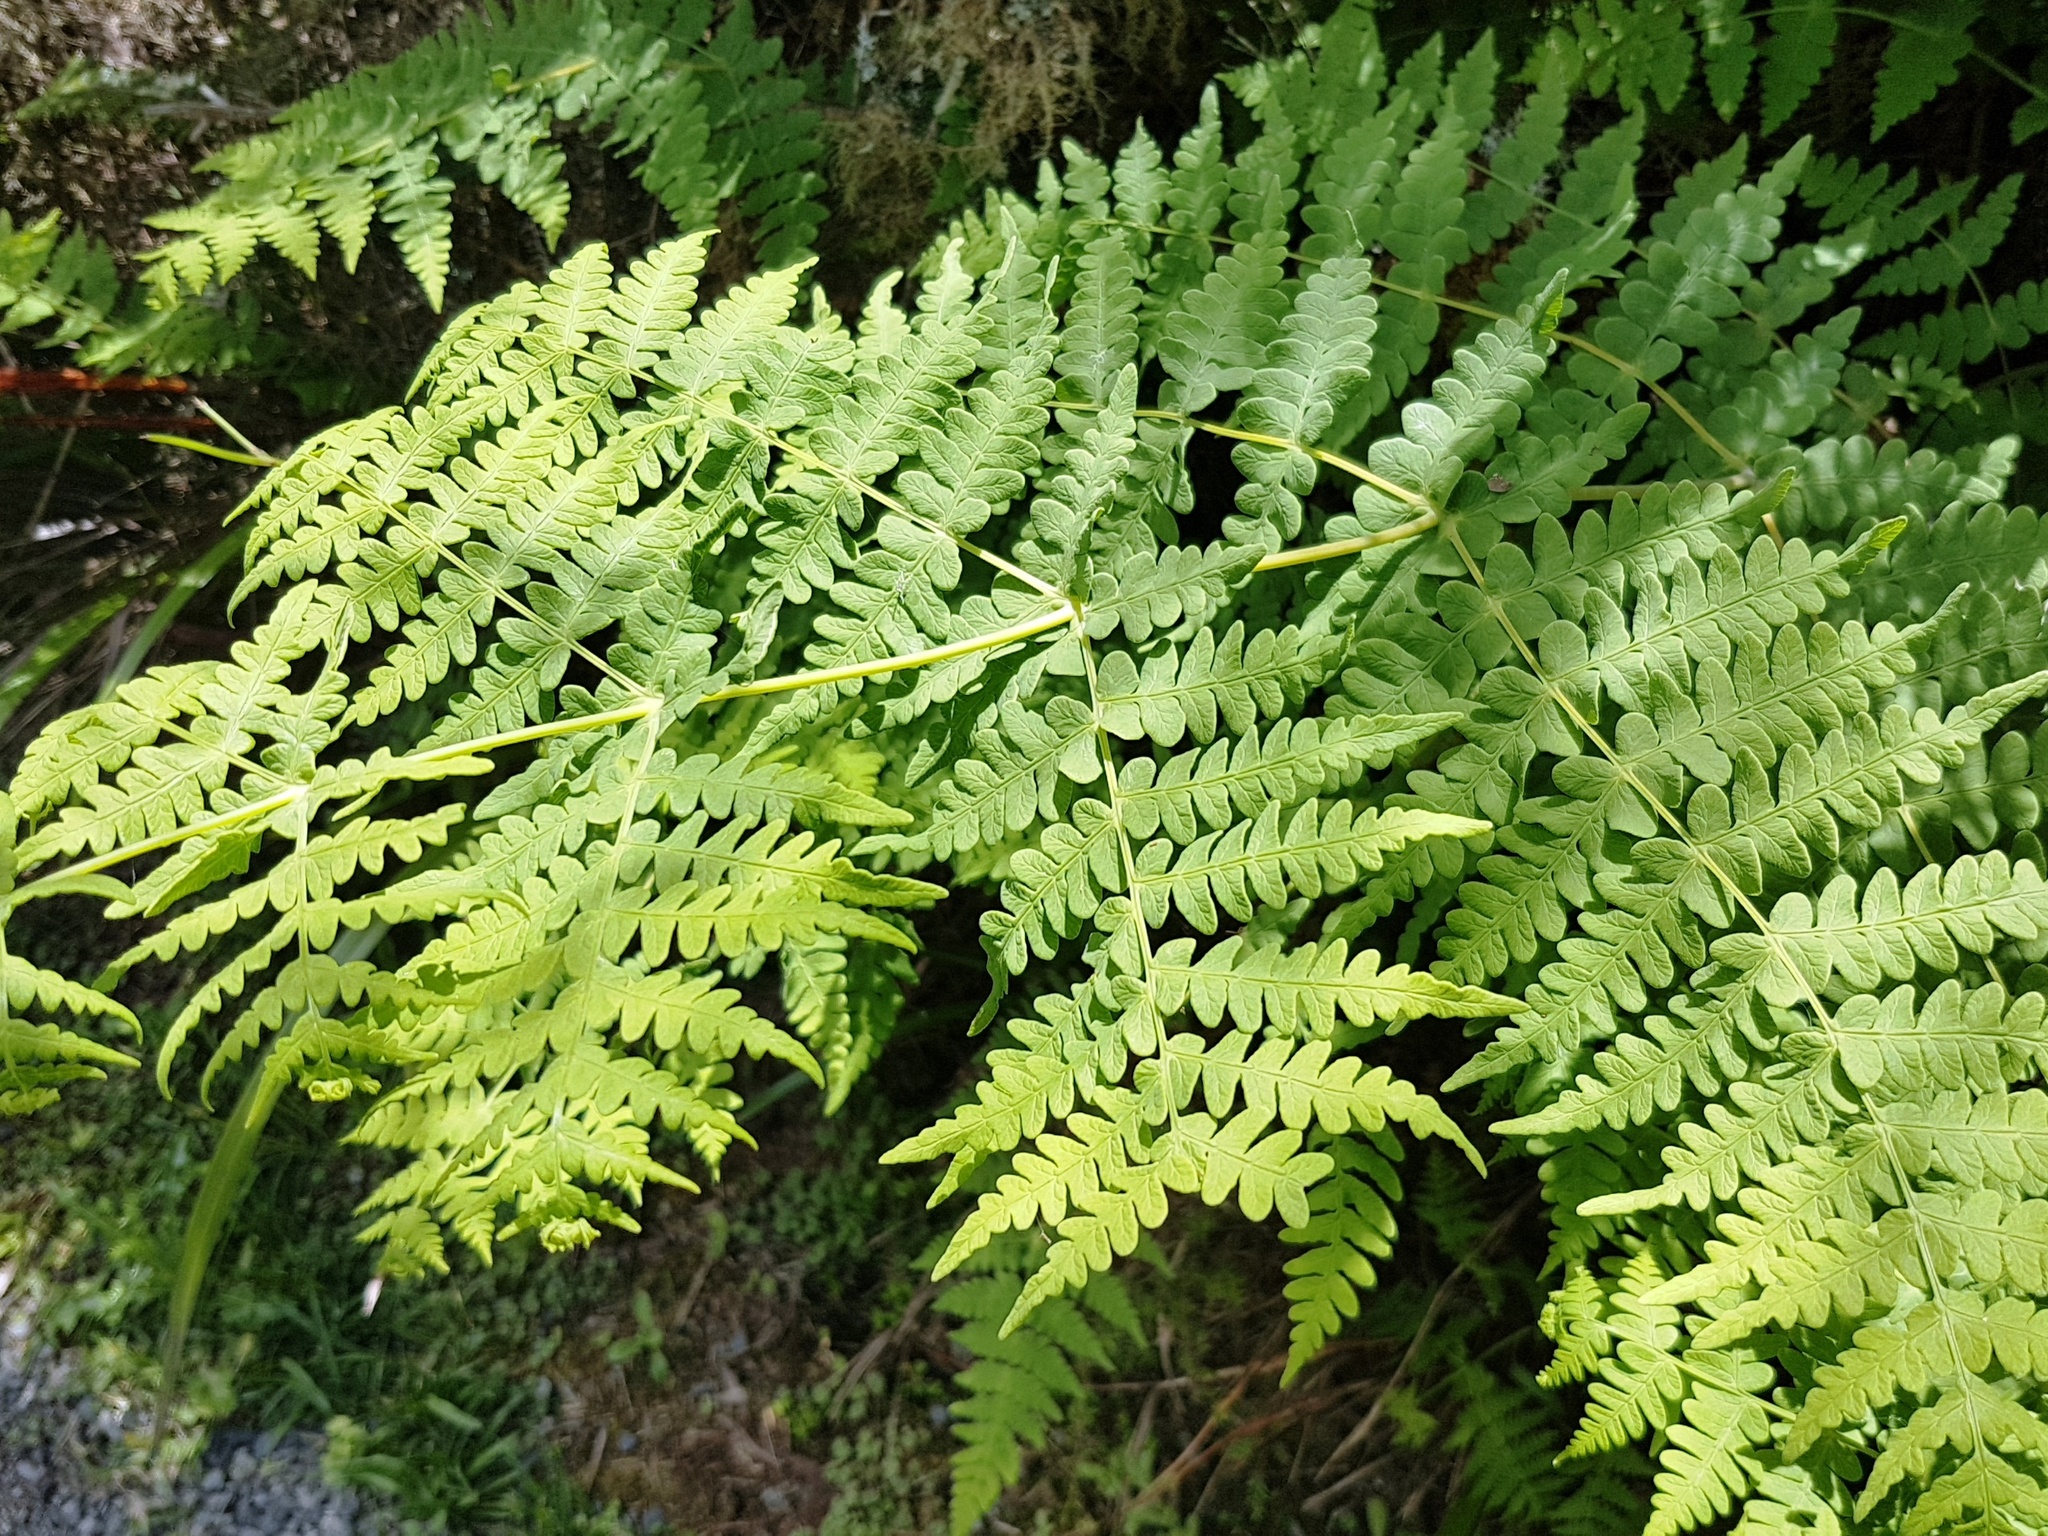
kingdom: Plantae
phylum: Tracheophyta
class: Polypodiopsida
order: Polypodiales
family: Dennstaedtiaceae
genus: Histiopteris
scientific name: Histiopteris incisa
